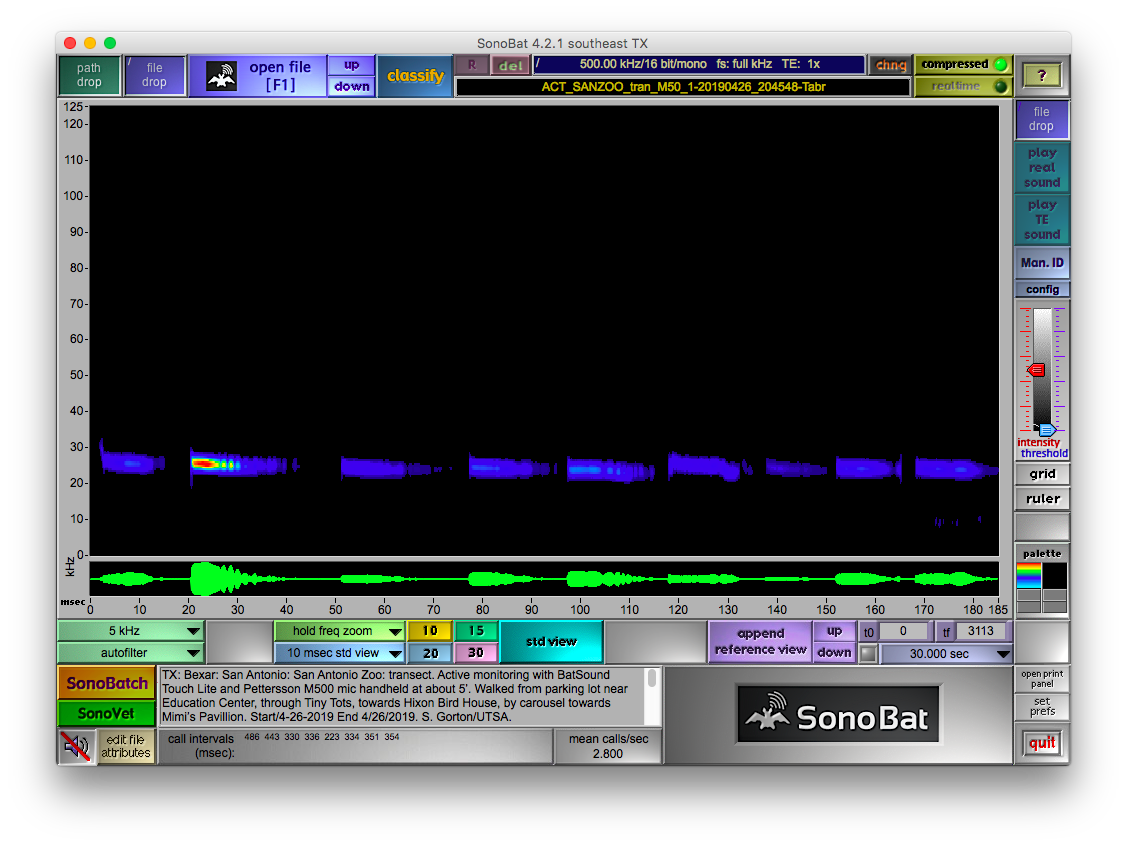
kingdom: Animalia
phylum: Chordata
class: Mammalia
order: Chiroptera
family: Molossidae
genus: Tadarida
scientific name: Tadarida brasiliensis
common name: Mexican free-tailed bat
